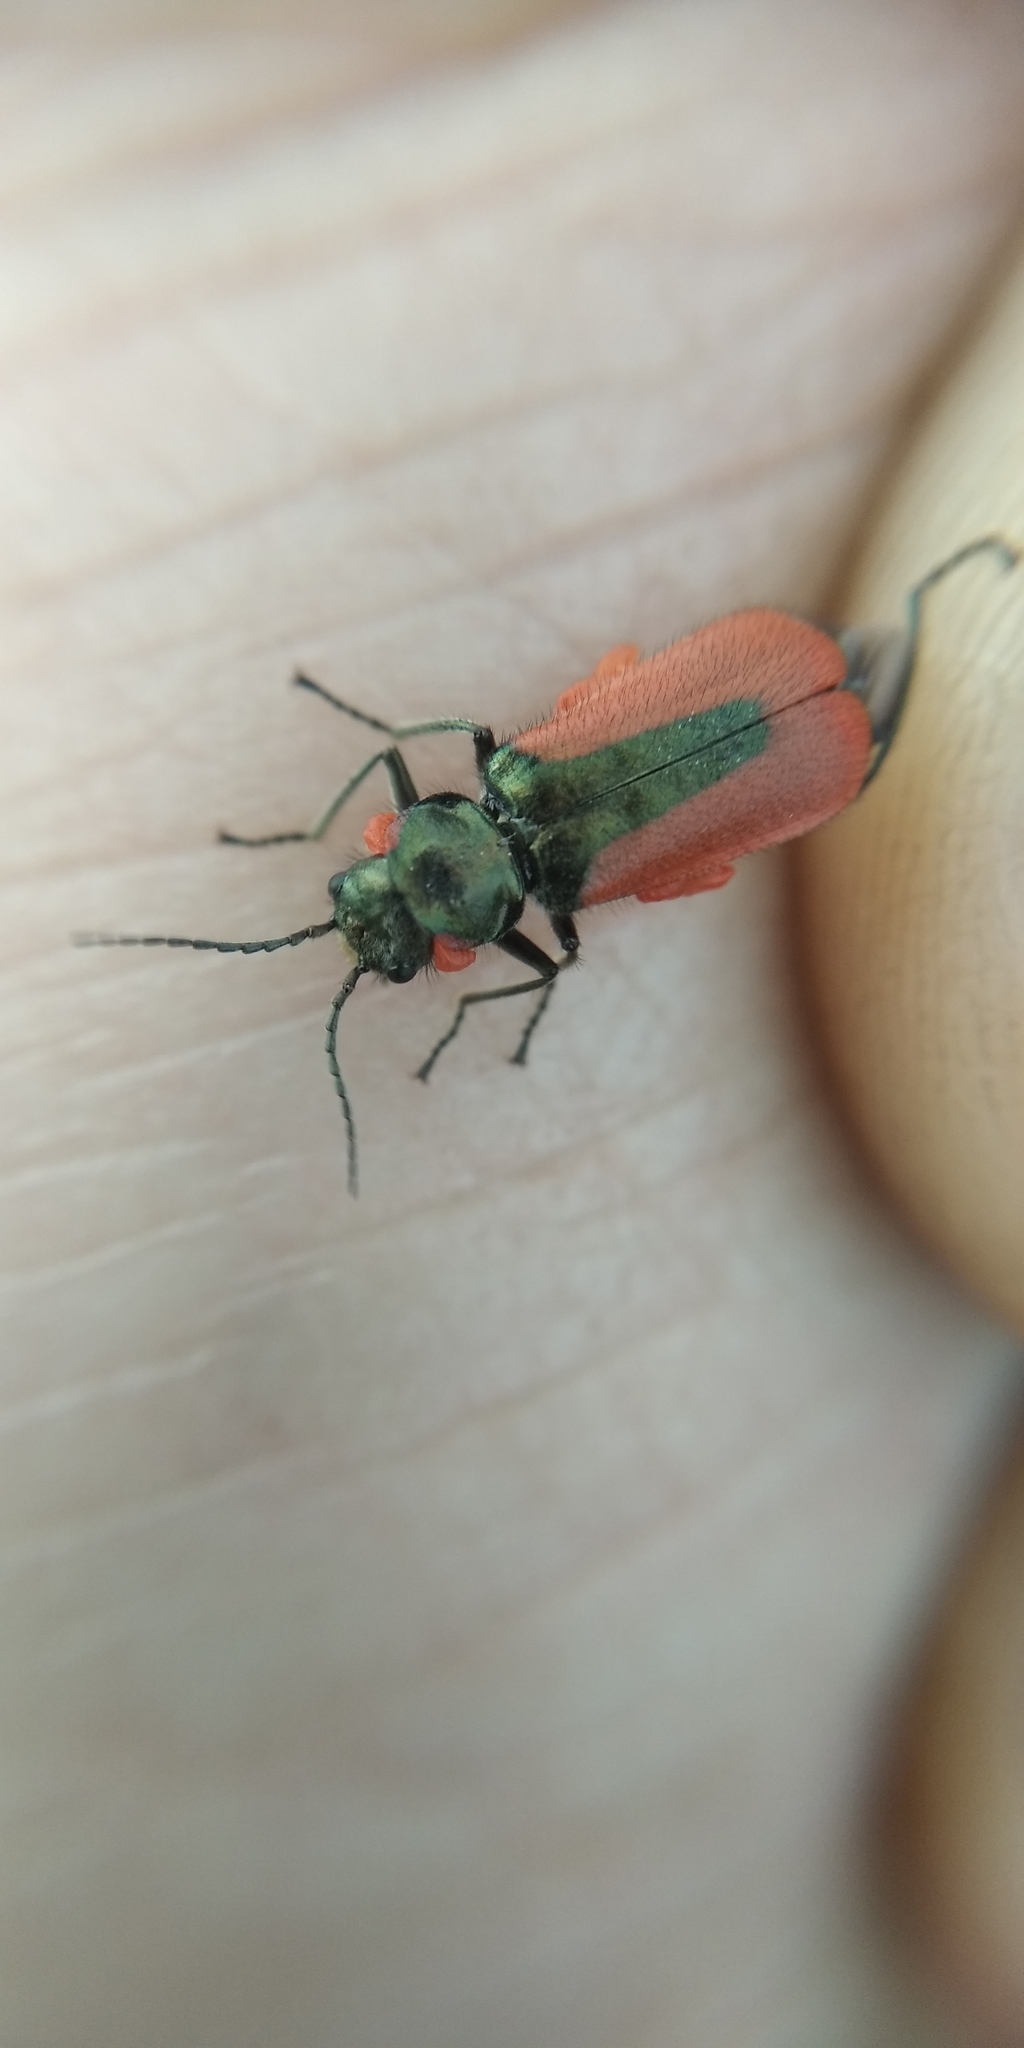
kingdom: Animalia
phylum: Arthropoda
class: Insecta
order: Coleoptera
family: Melyridae
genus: Malachius
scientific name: Malachius aeneus
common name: Scarlet malachite beetle
